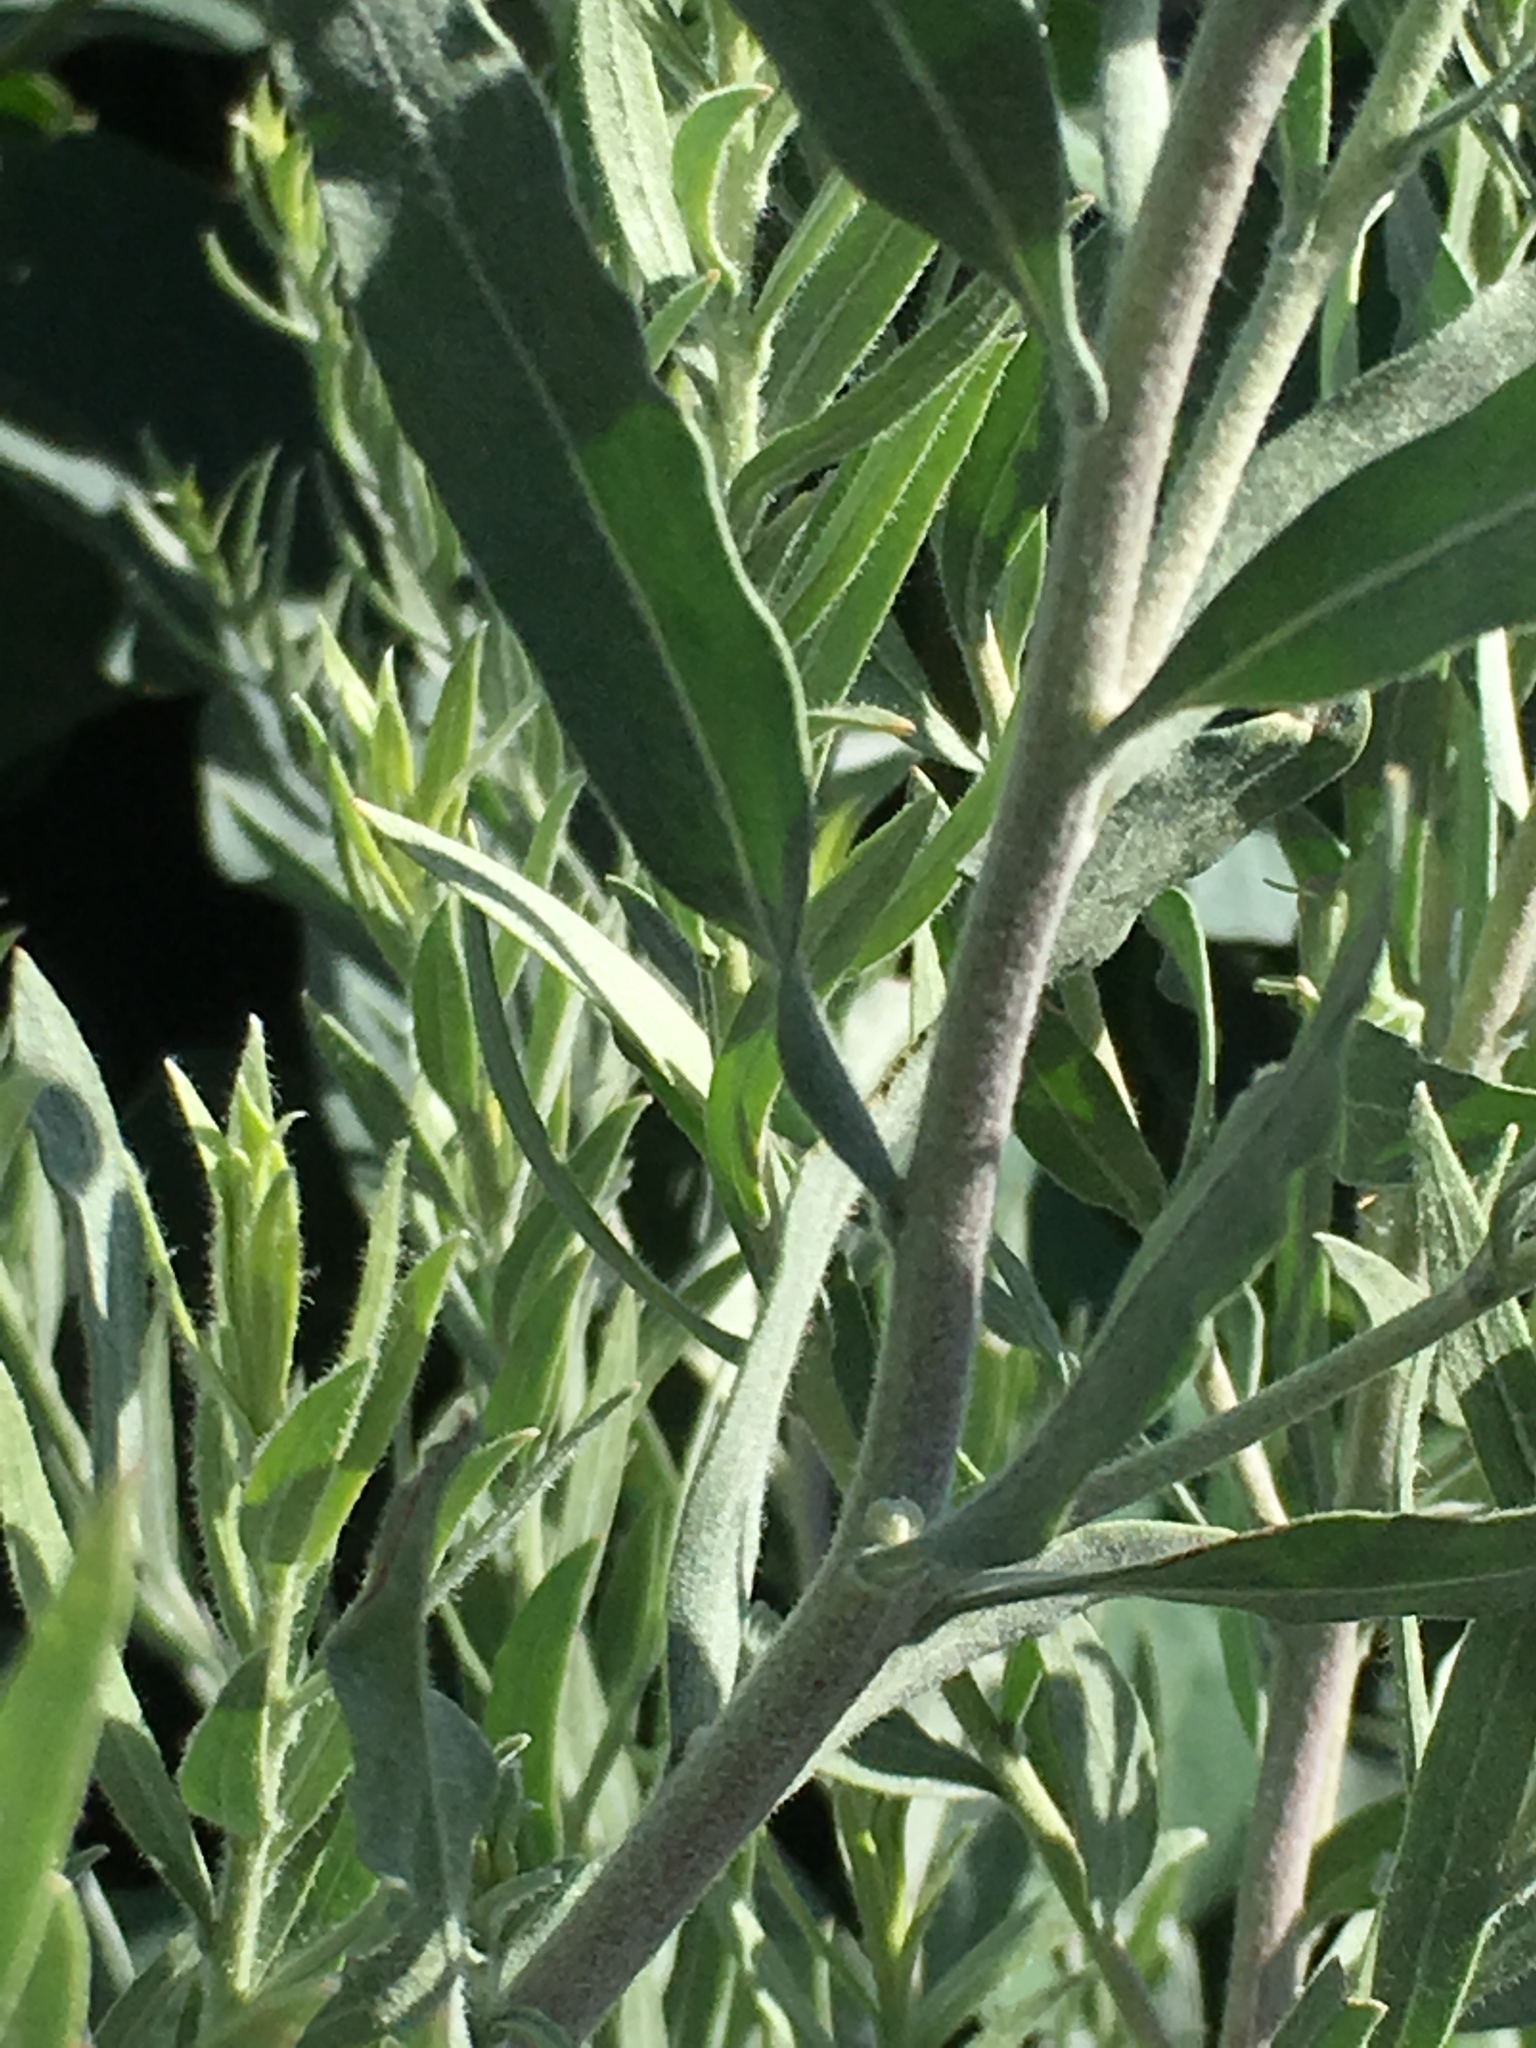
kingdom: Plantae
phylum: Tracheophyta
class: Magnoliopsida
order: Asterales
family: Asteraceae
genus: Pluchea
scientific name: Pluchea sericea
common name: Arrow-weed
